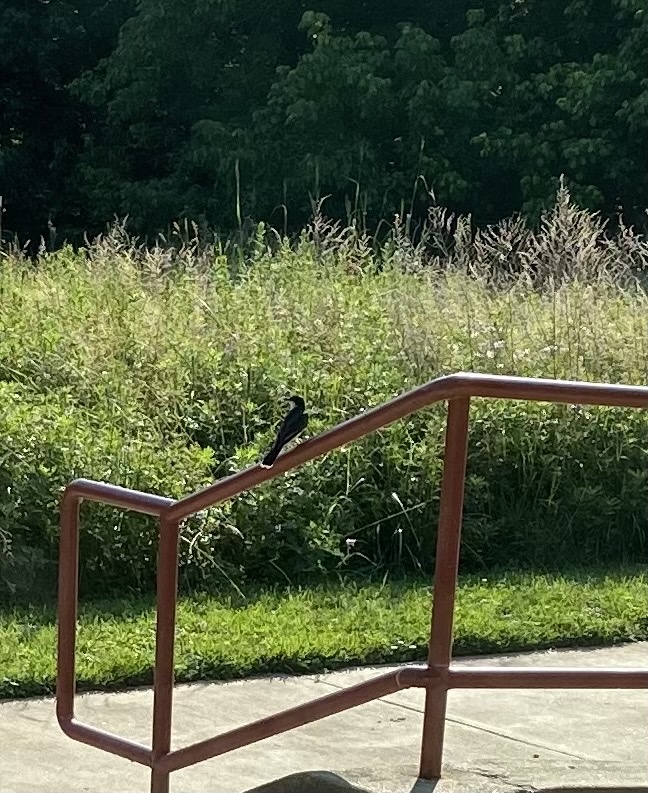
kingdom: Animalia
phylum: Chordata
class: Aves
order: Passeriformes
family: Tyrannidae
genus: Tyrannus
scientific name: Tyrannus tyrannus
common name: Eastern kingbird
